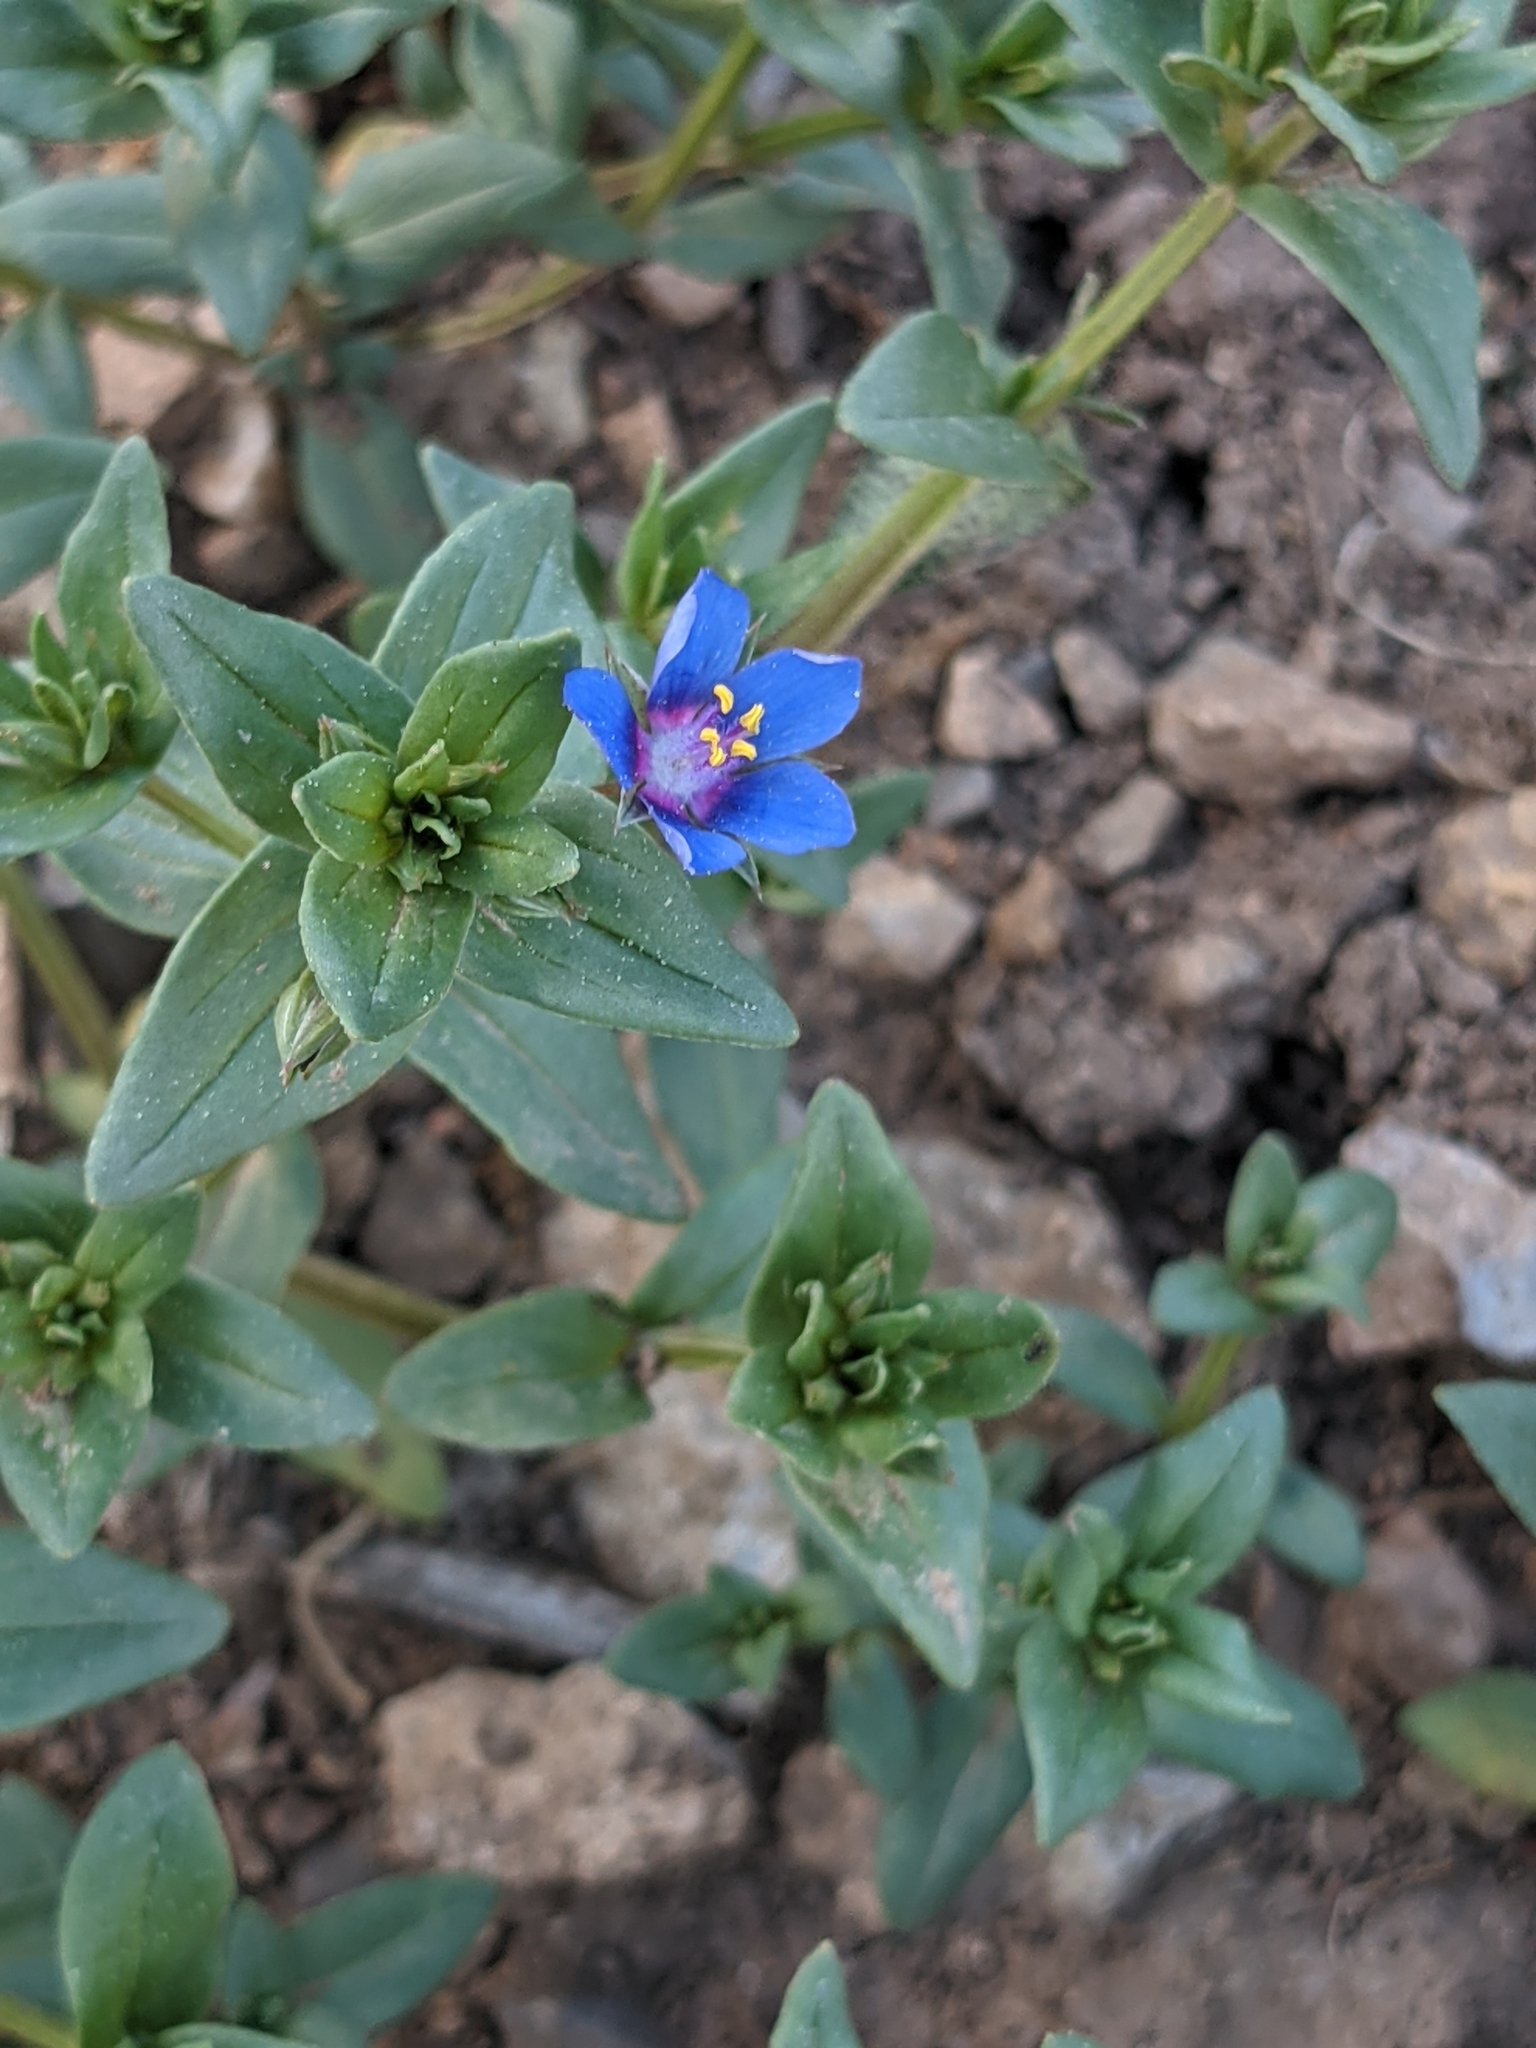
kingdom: Plantae
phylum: Tracheophyta
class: Magnoliopsida
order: Ericales
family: Primulaceae
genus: Lysimachia
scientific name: Lysimachia foemina
